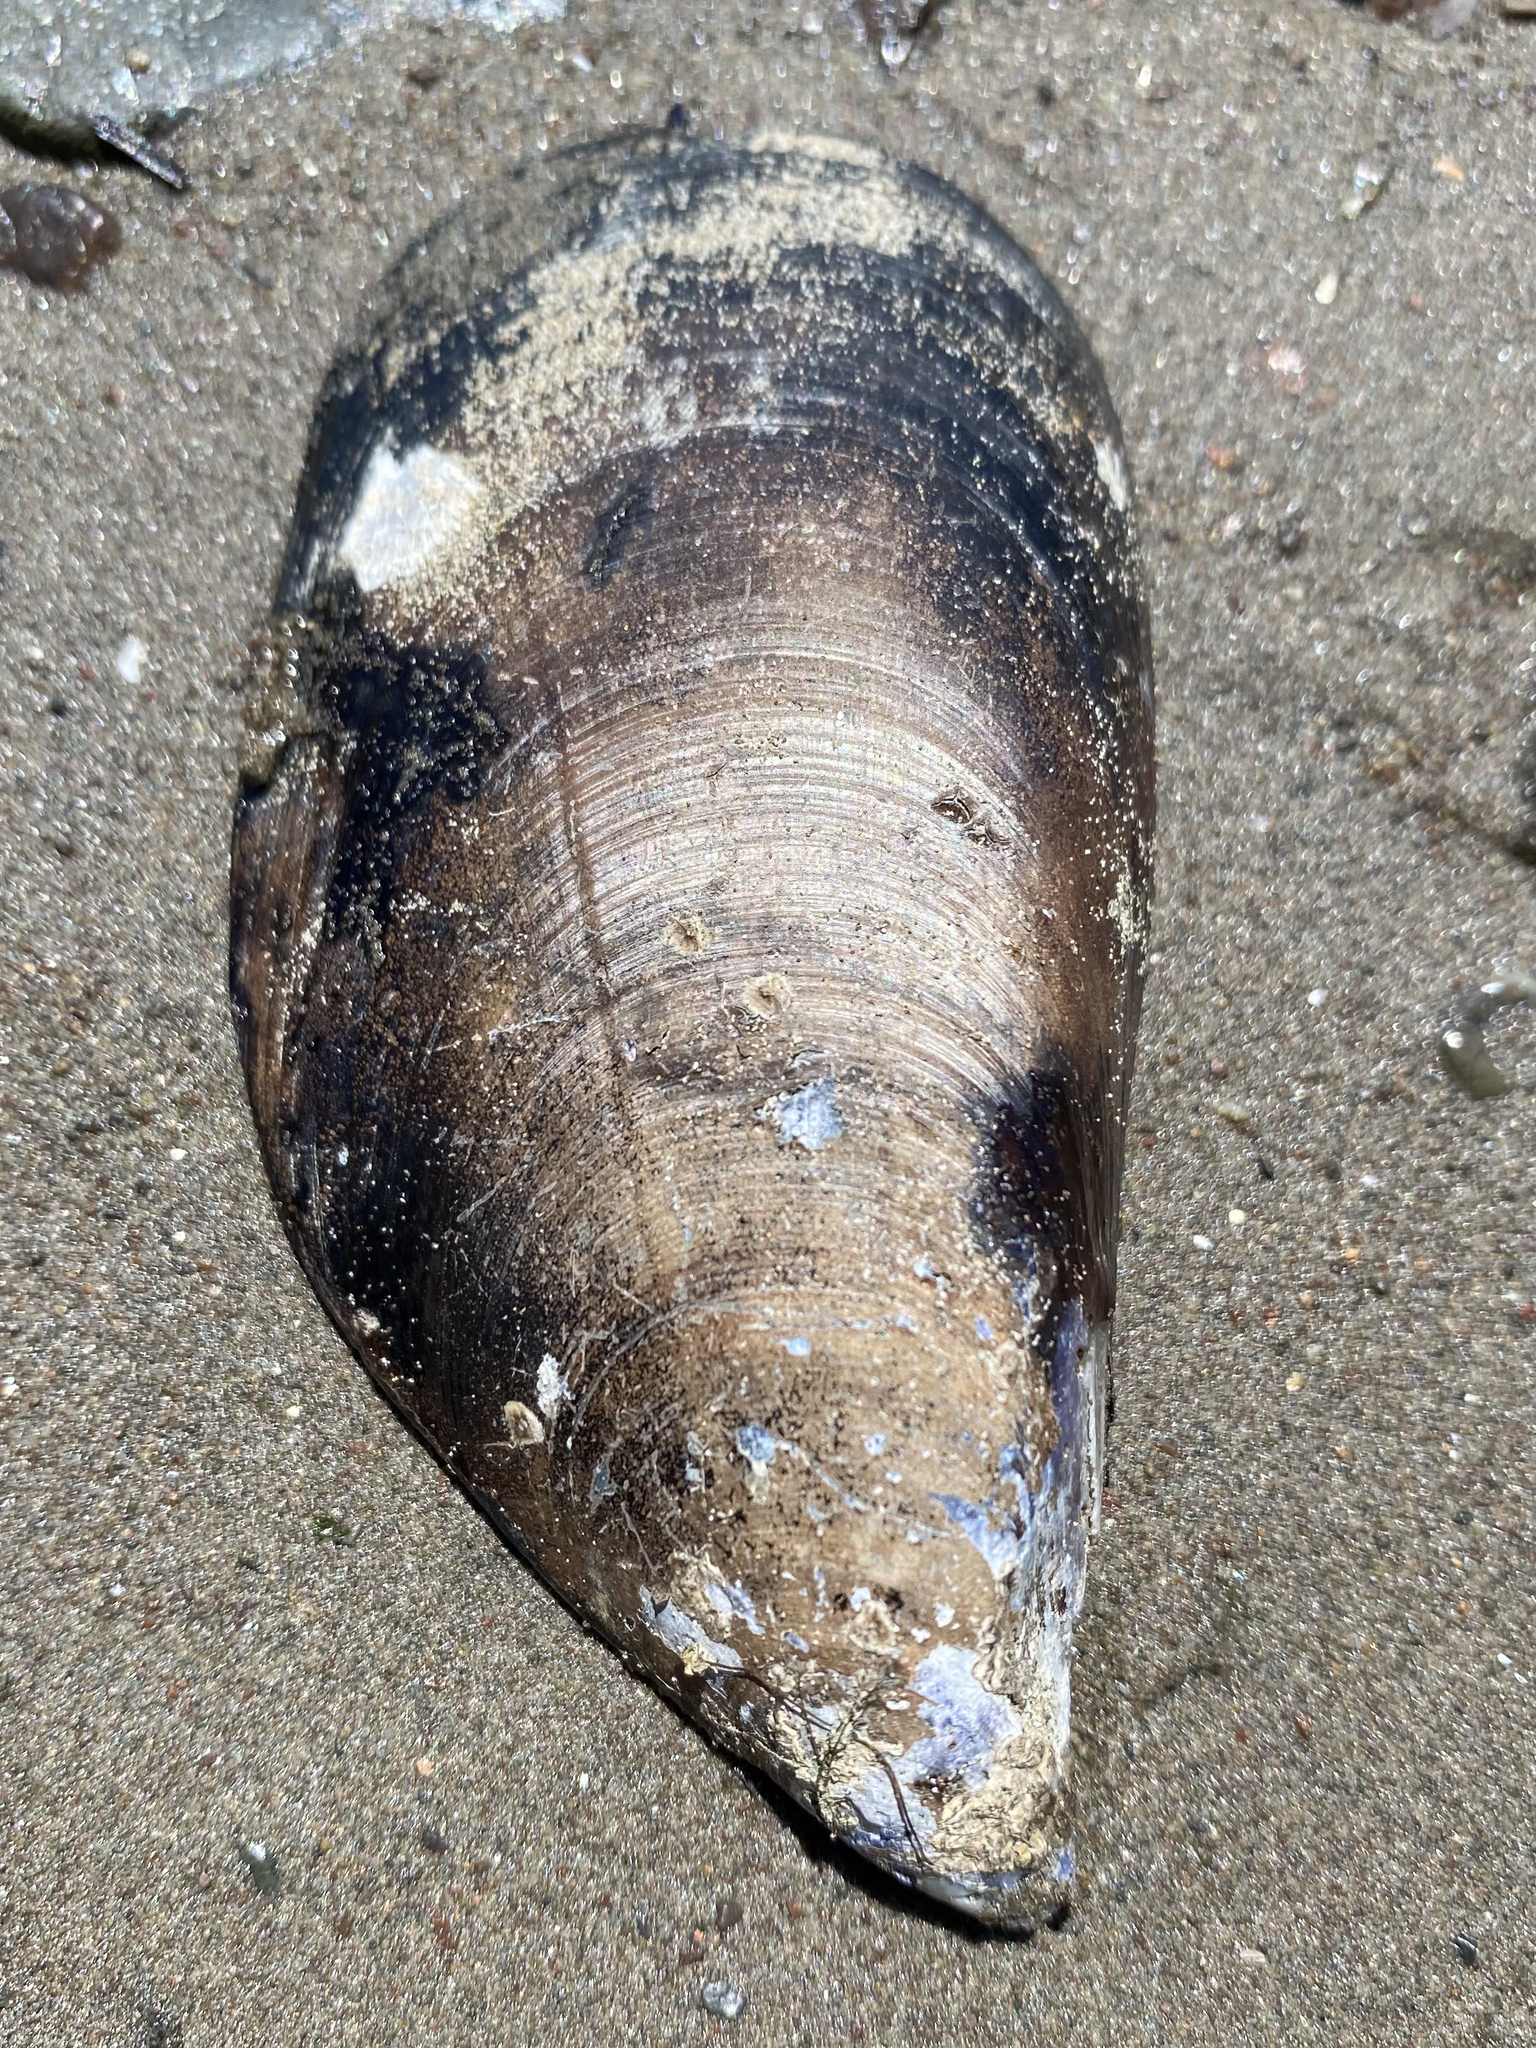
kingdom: Animalia
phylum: Mollusca
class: Bivalvia
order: Mytilida
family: Mytilidae
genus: Mytilus
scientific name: Mytilus
